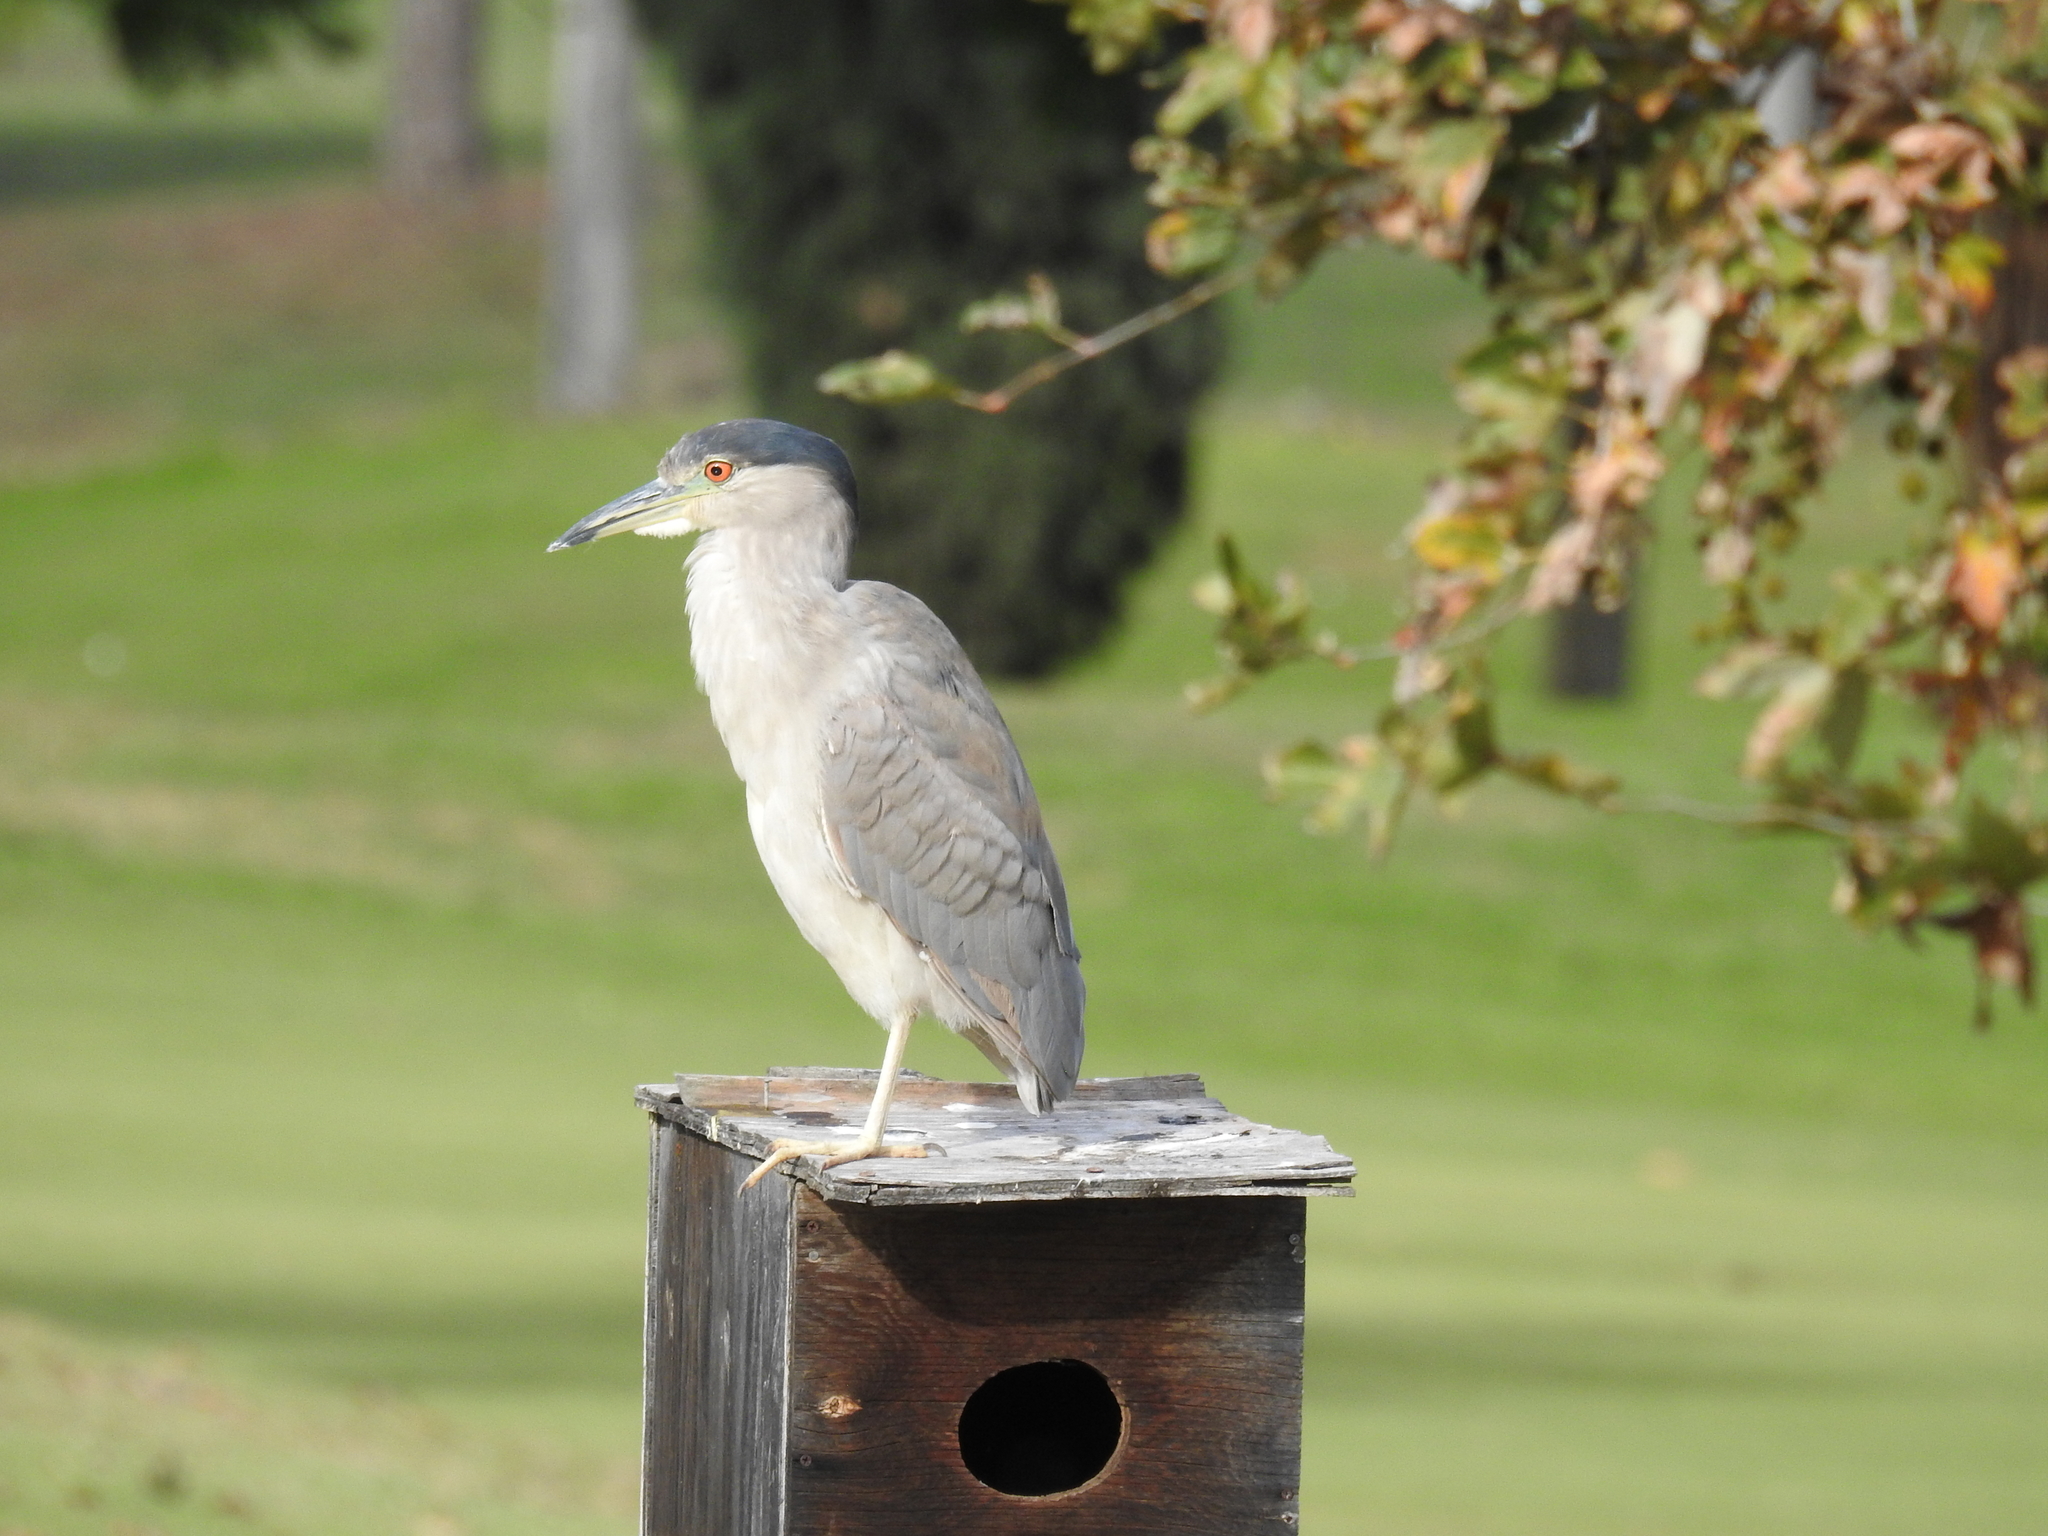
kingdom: Animalia
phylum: Chordata
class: Aves
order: Pelecaniformes
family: Ardeidae
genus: Nycticorax
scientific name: Nycticorax nycticorax
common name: Black-crowned night heron
